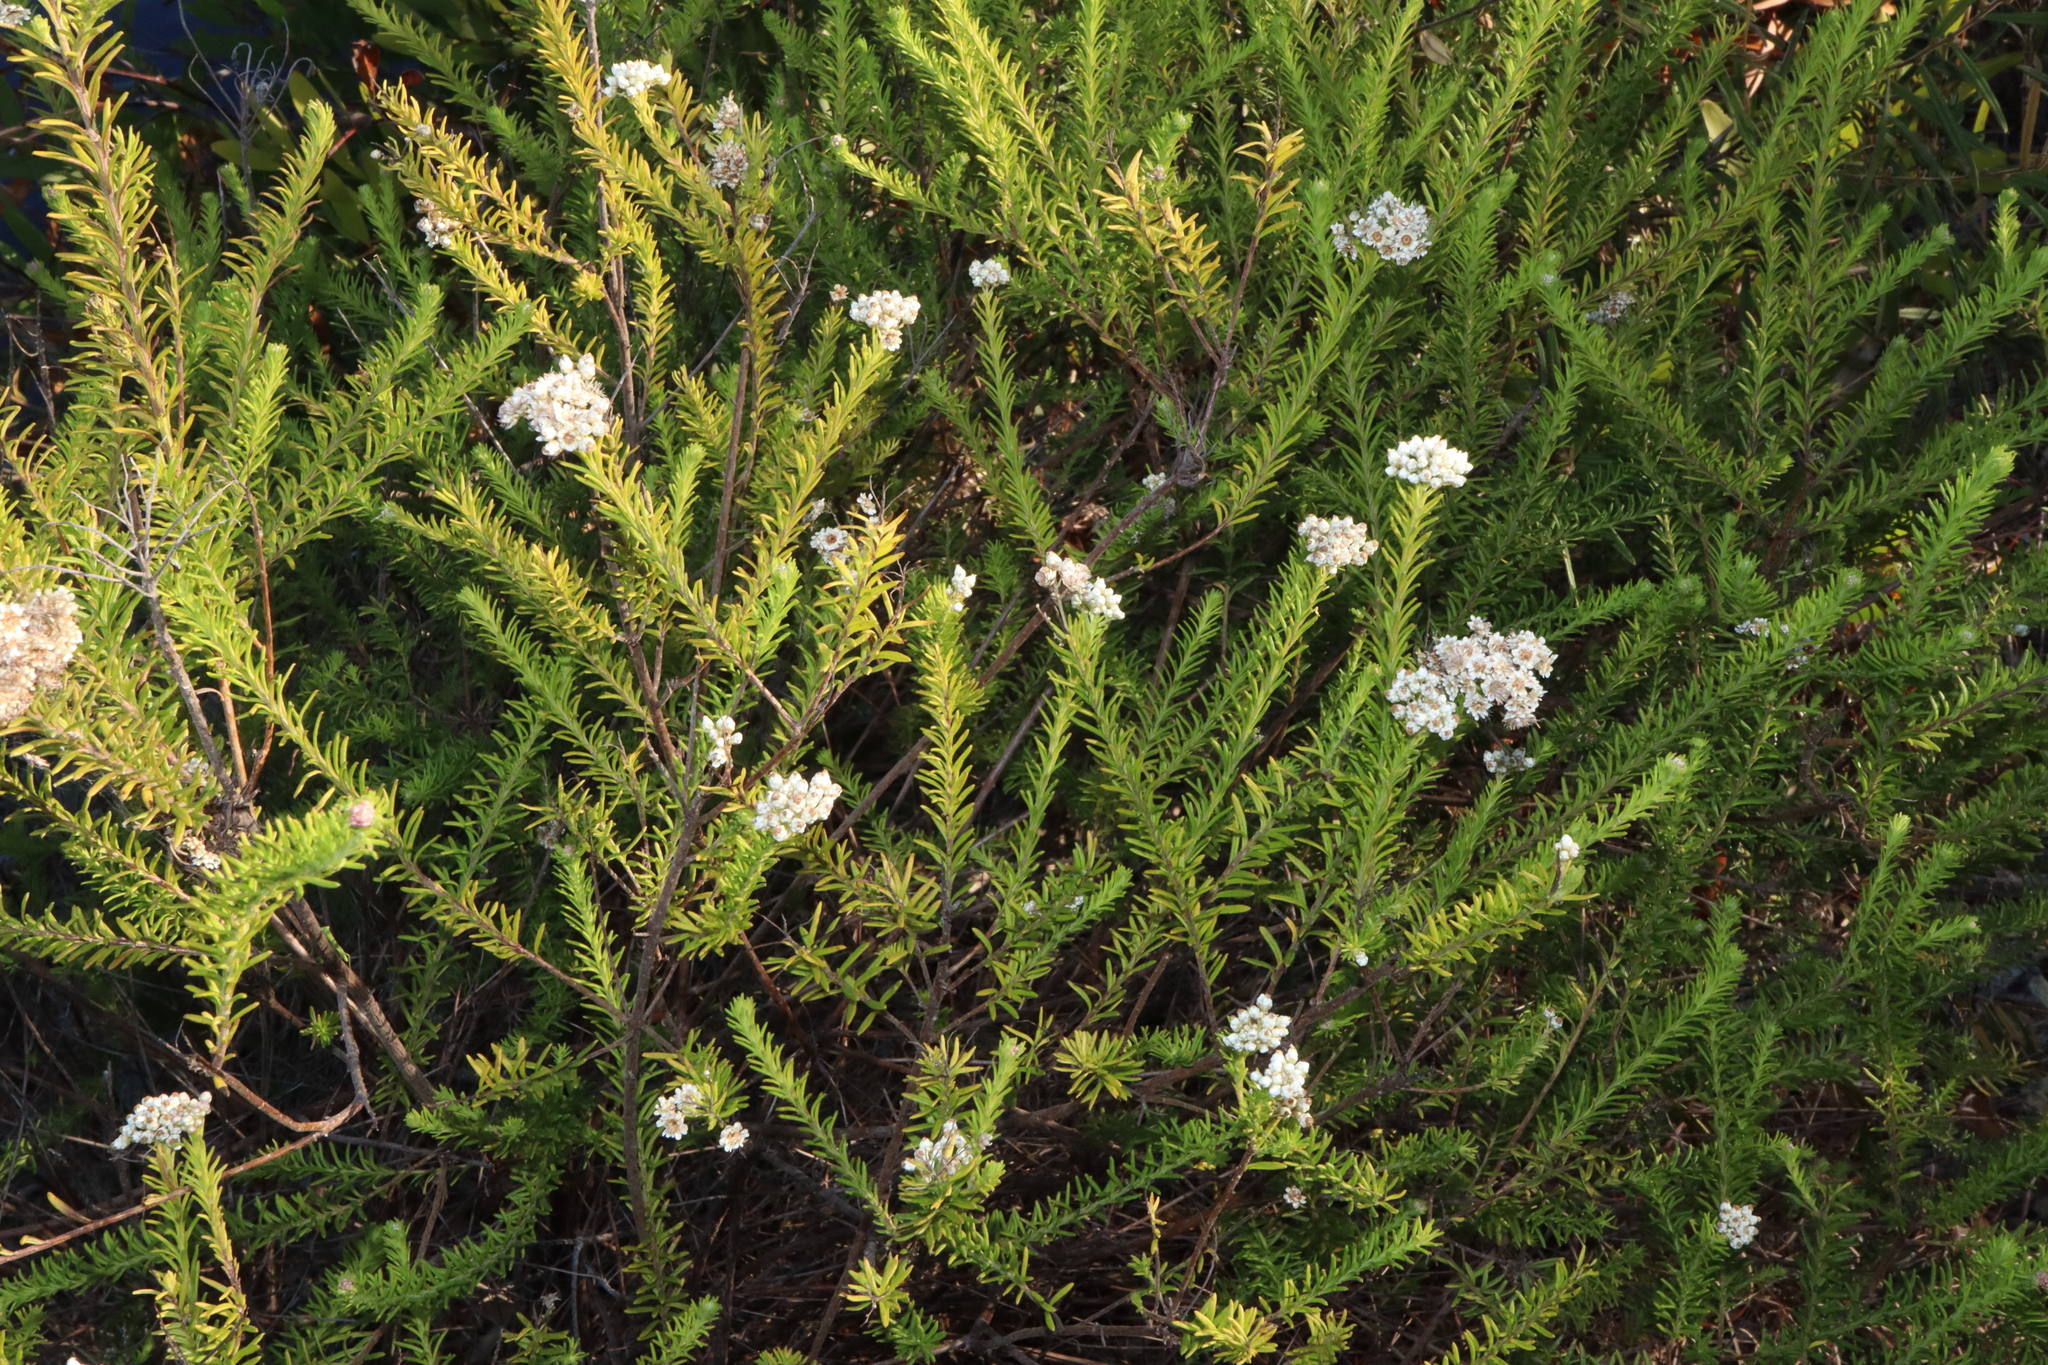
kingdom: Plantae
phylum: Tracheophyta
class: Magnoliopsida
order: Asterales
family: Asteraceae
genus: Ozothamnus
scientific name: Ozothamnus diosmifolius
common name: White-dogwood
